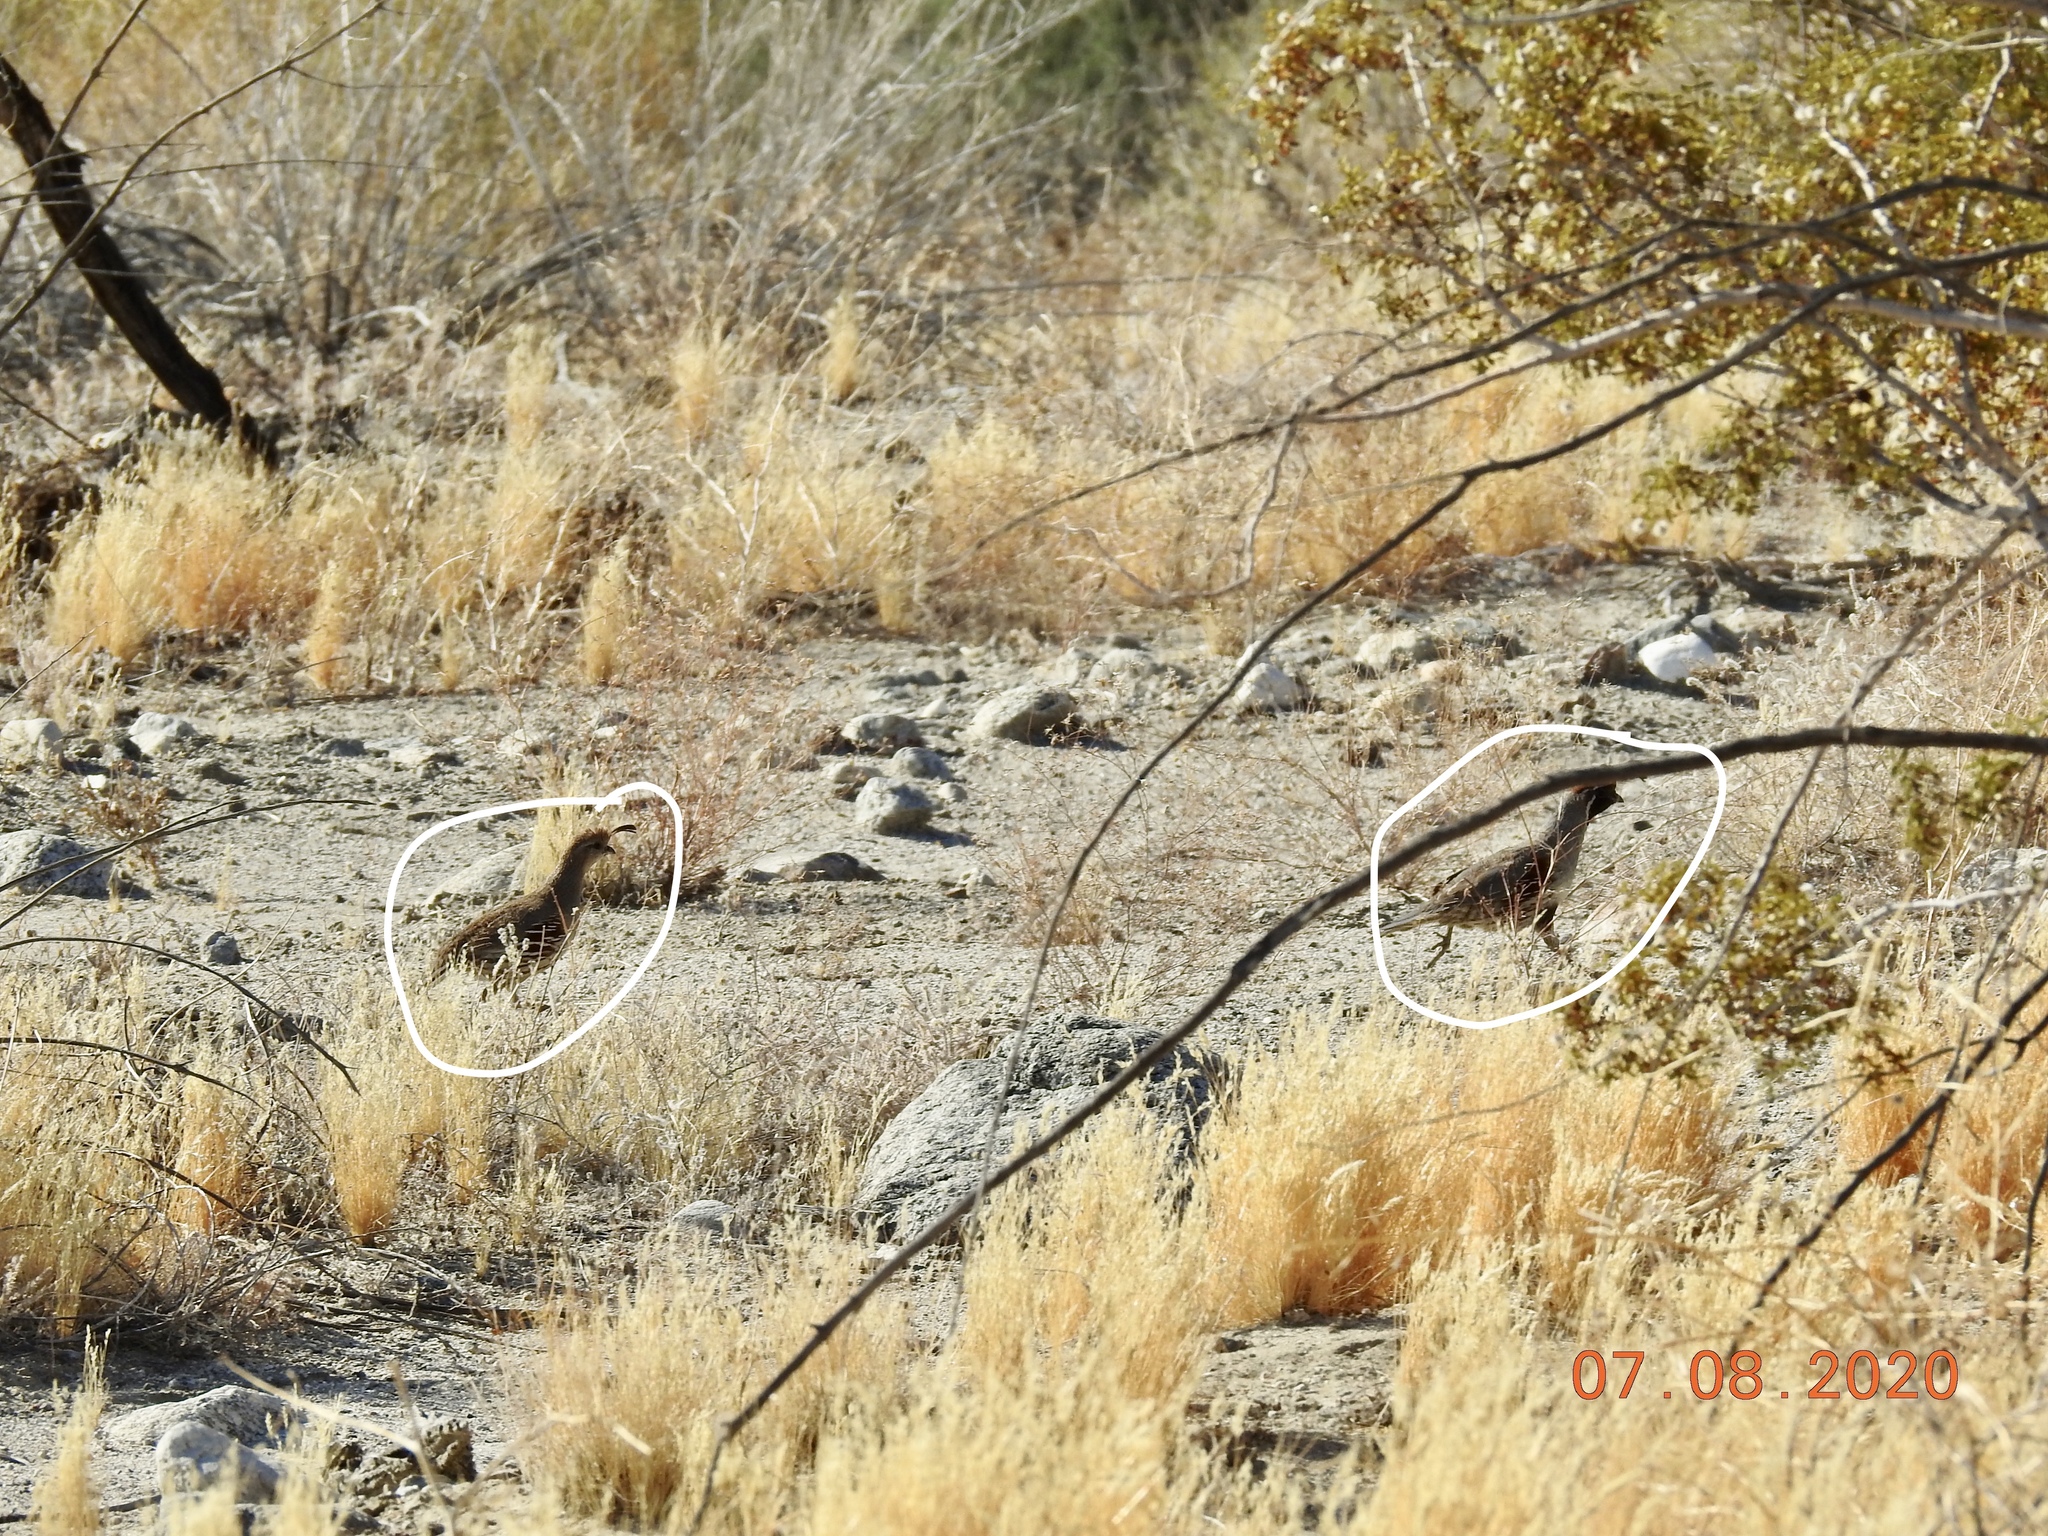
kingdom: Animalia
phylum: Chordata
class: Aves
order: Galliformes
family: Odontophoridae
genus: Callipepla
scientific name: Callipepla gambelii
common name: Gambel's quail
